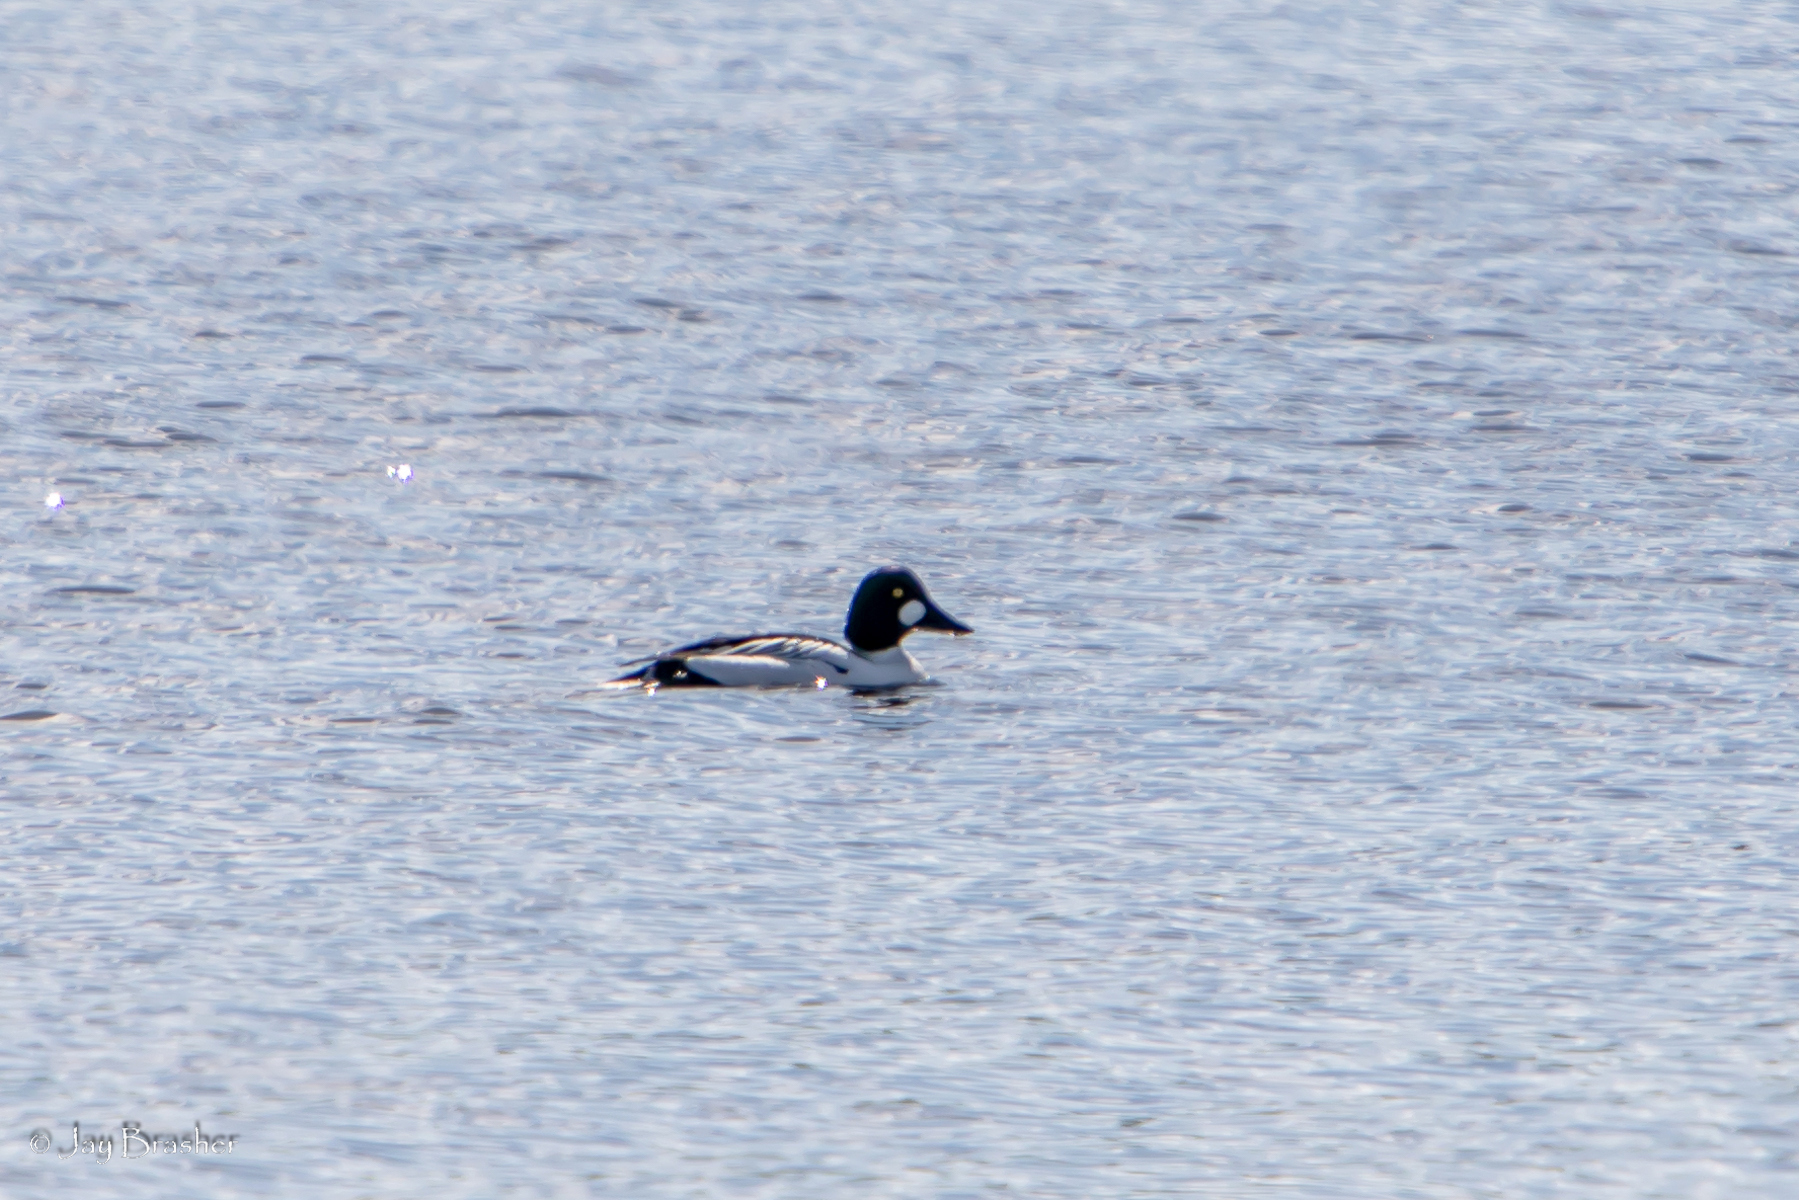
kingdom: Animalia
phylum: Chordata
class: Aves
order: Anseriformes
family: Anatidae
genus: Bucephala
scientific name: Bucephala clangula
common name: Common goldeneye
